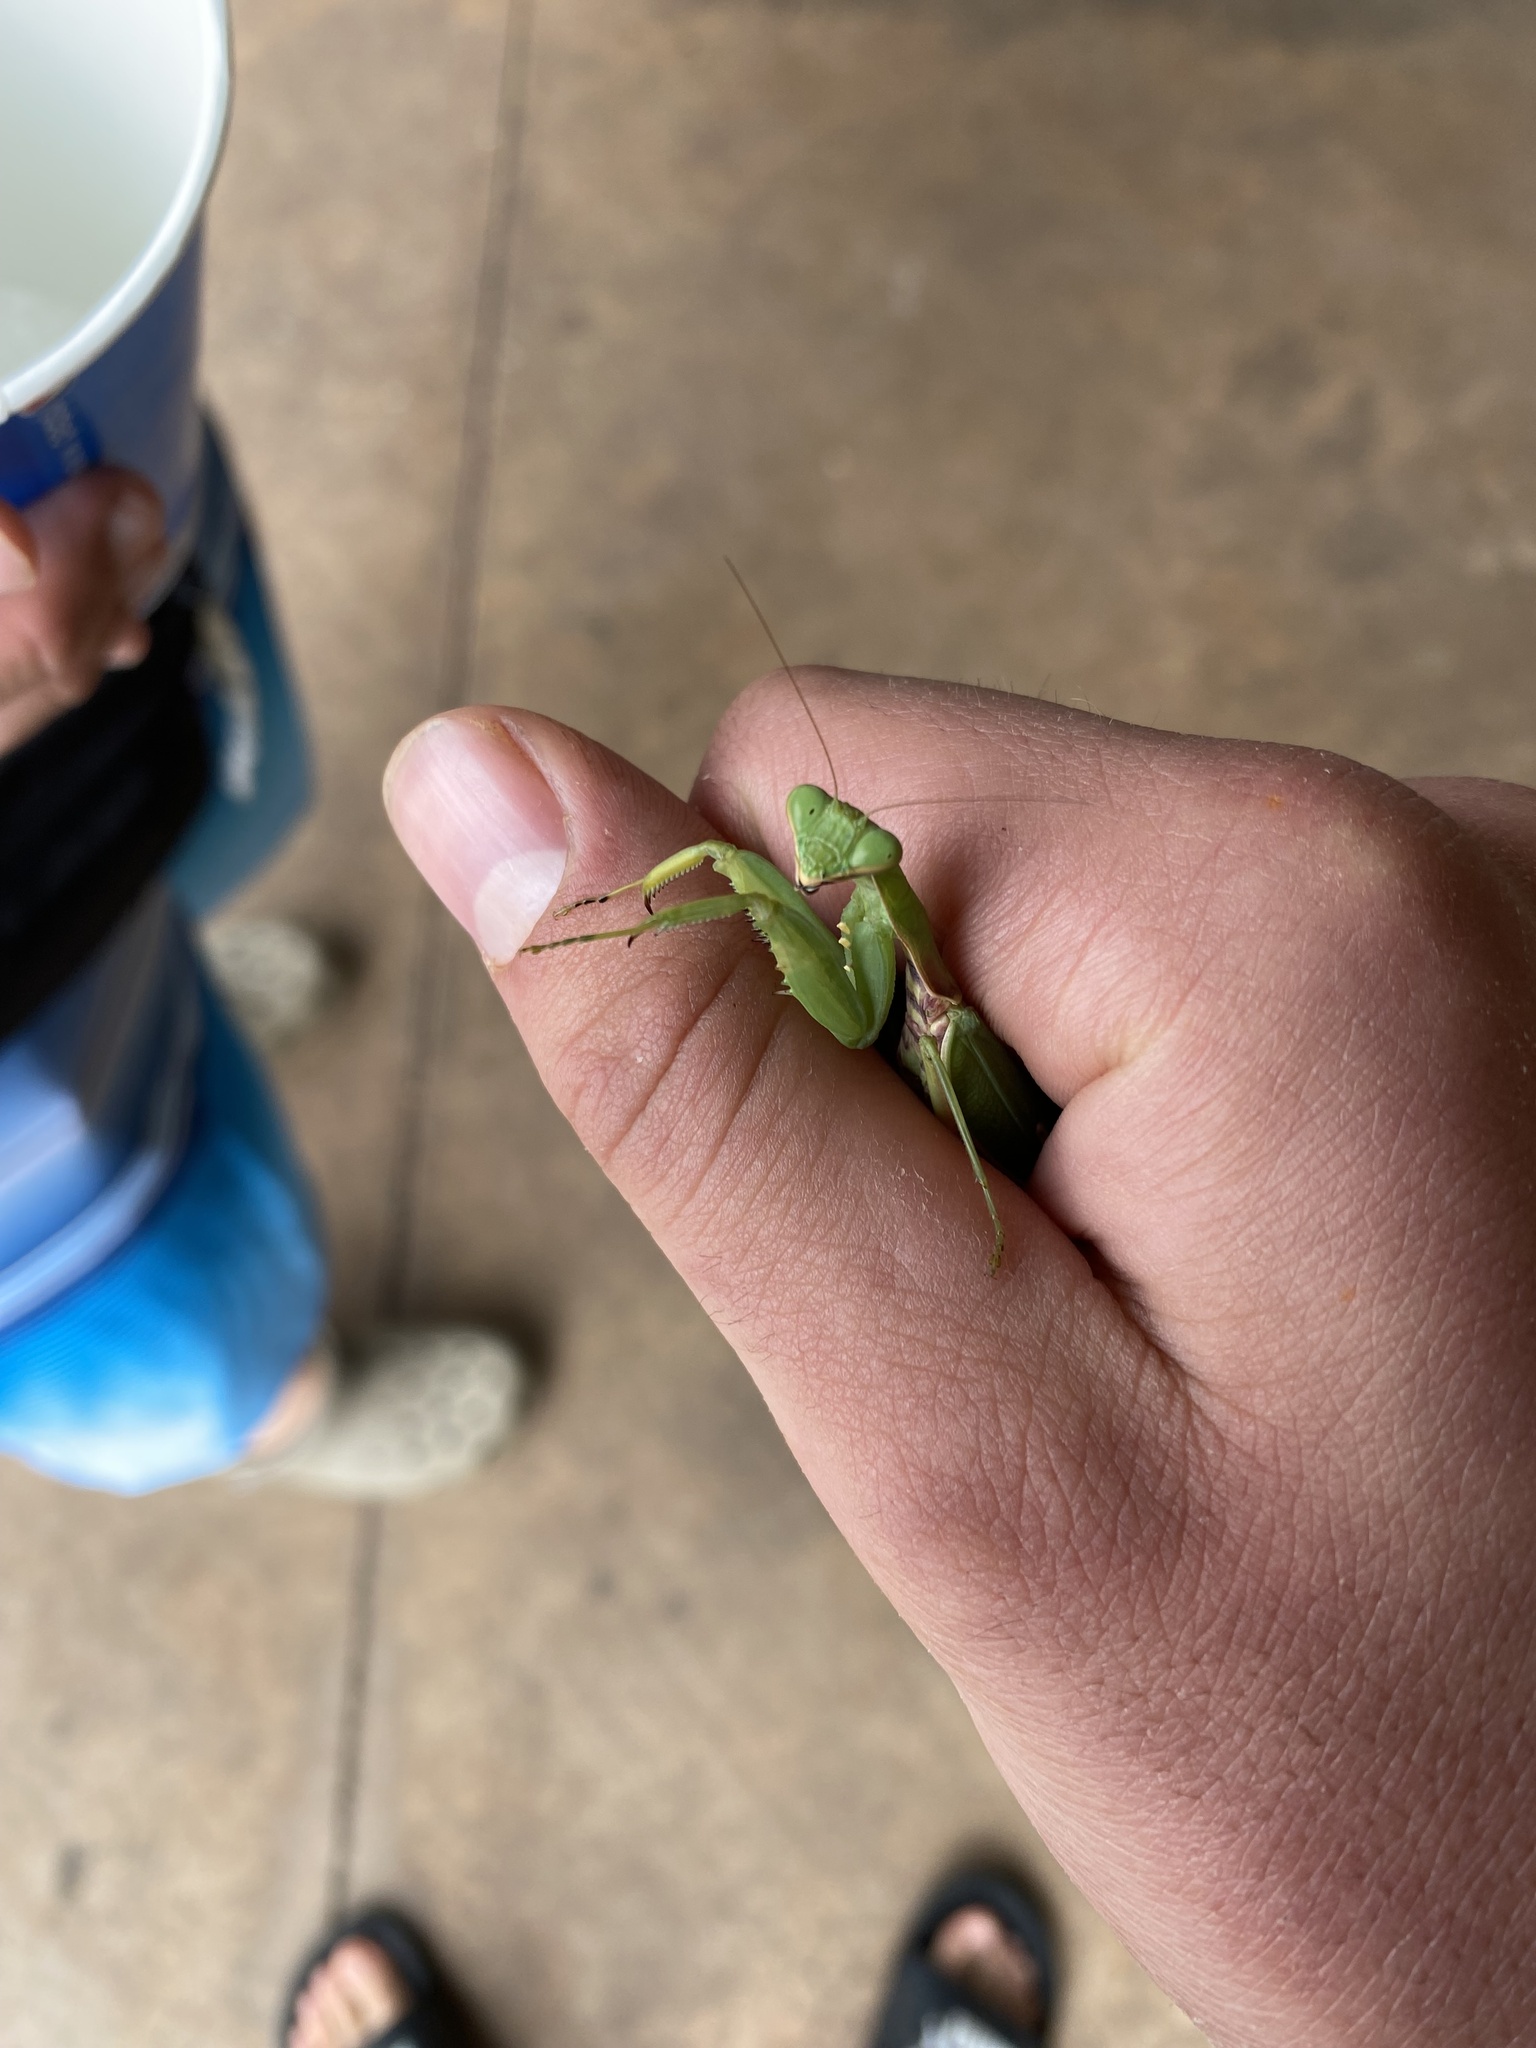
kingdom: Animalia
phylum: Arthropoda
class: Insecta
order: Mantodea
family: Mantidae
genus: Hierodula
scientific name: Hierodula patellifera
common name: Asian mantis
